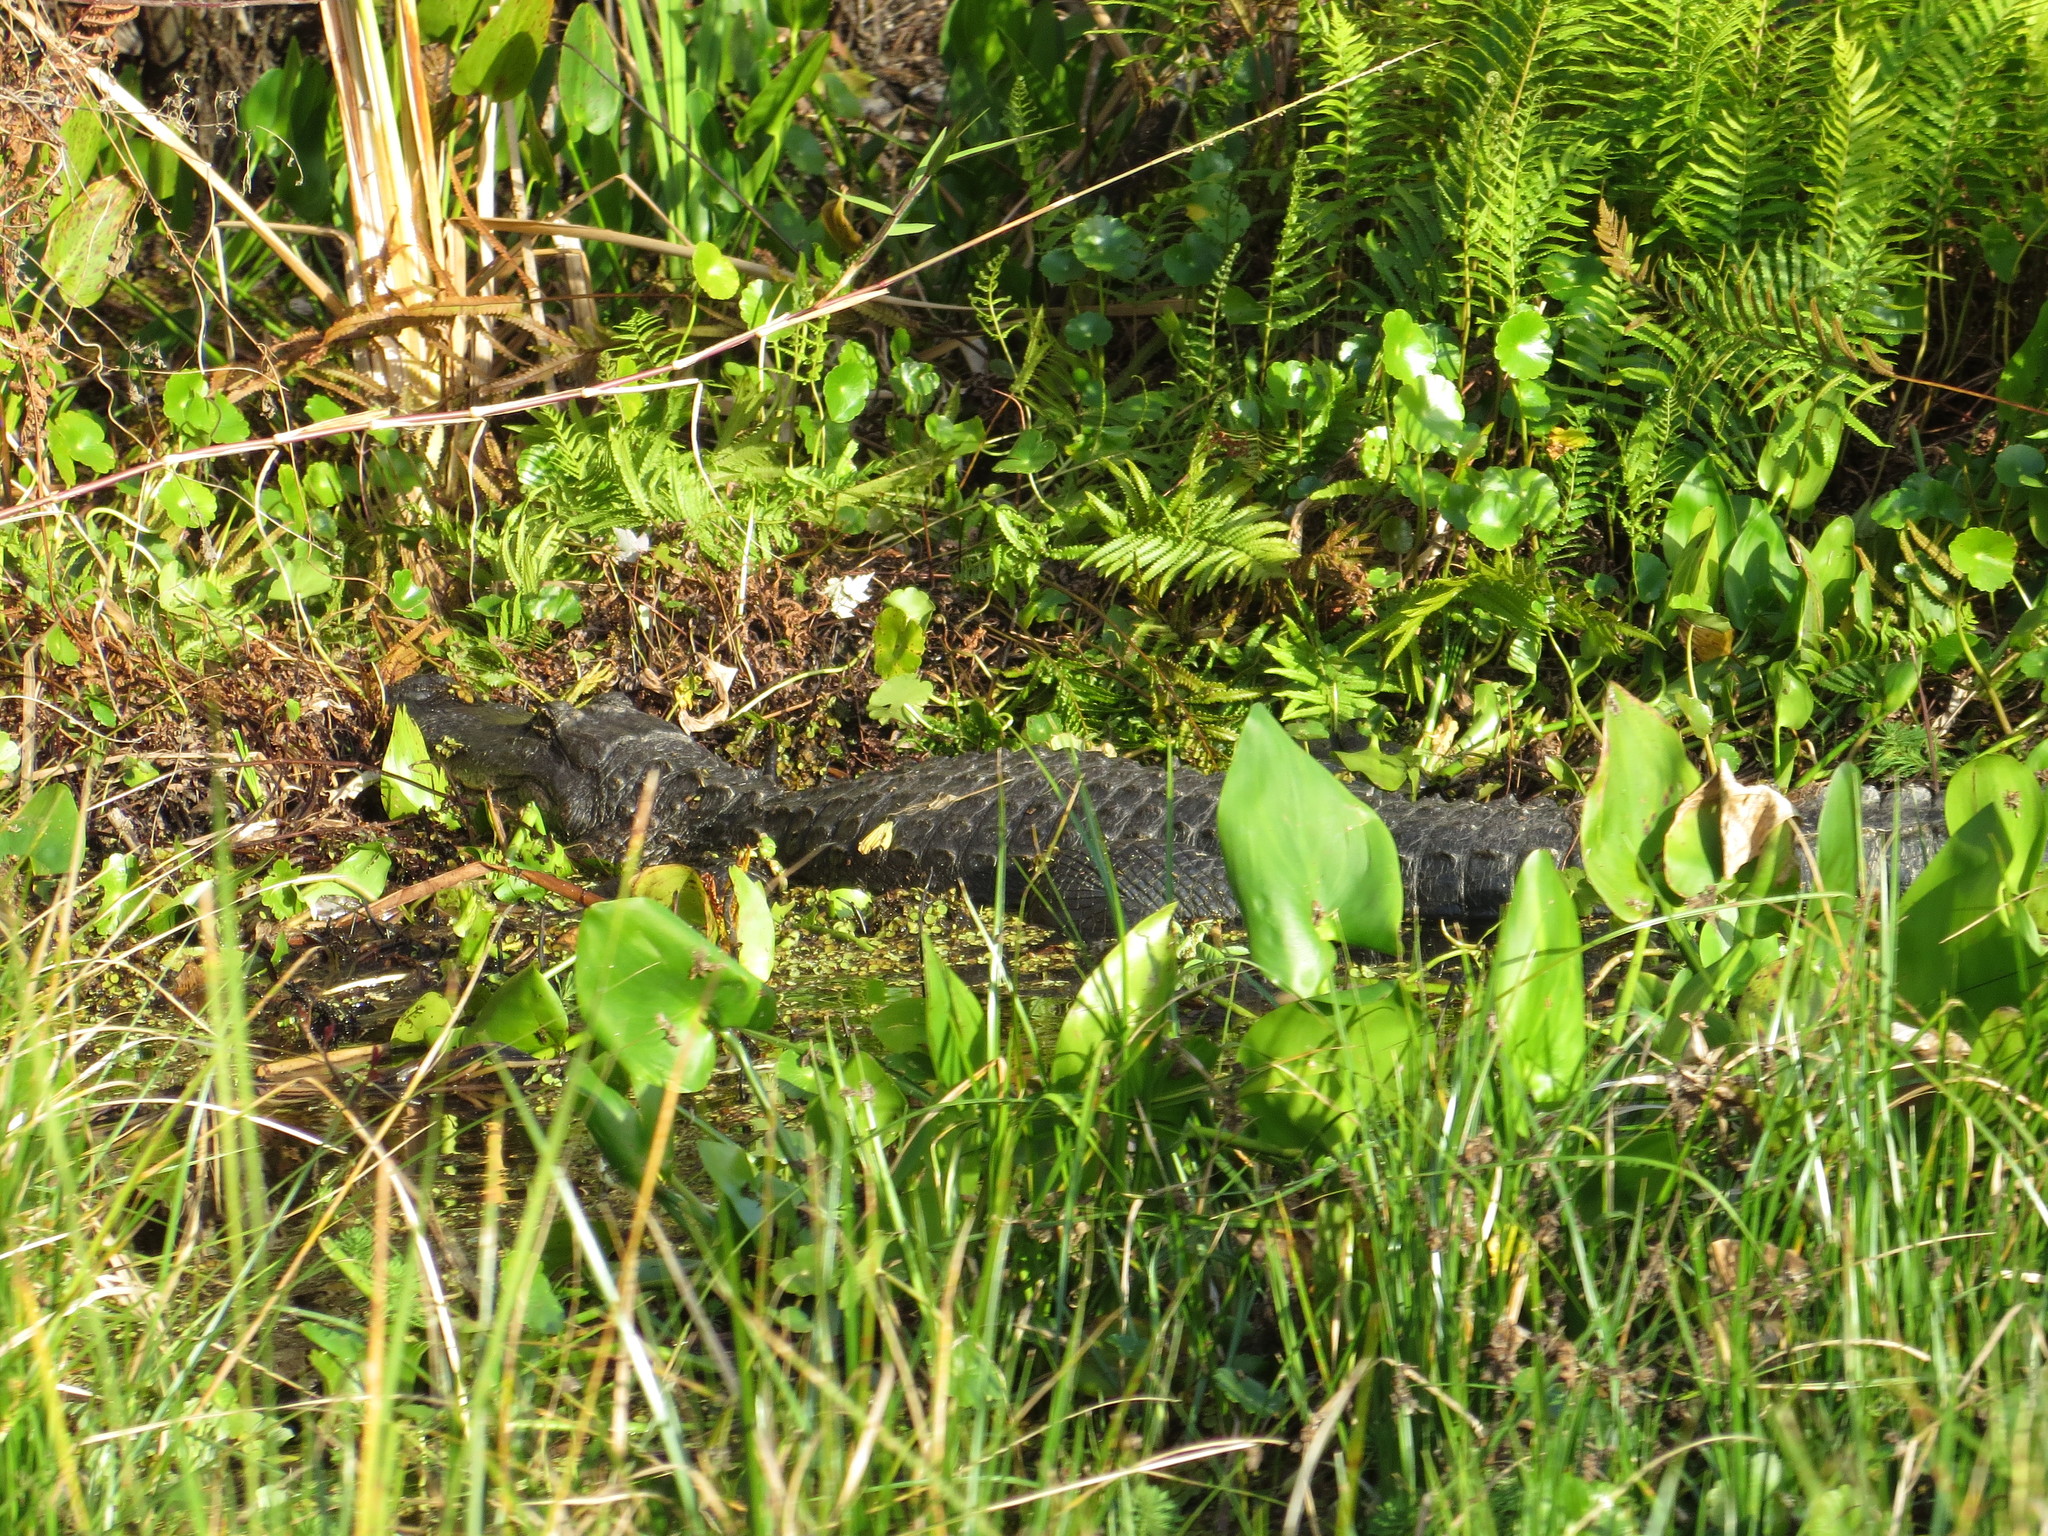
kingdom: Animalia
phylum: Chordata
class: Crocodylia
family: Alligatoridae
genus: Alligator
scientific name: Alligator mississippiensis
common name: American alligator
